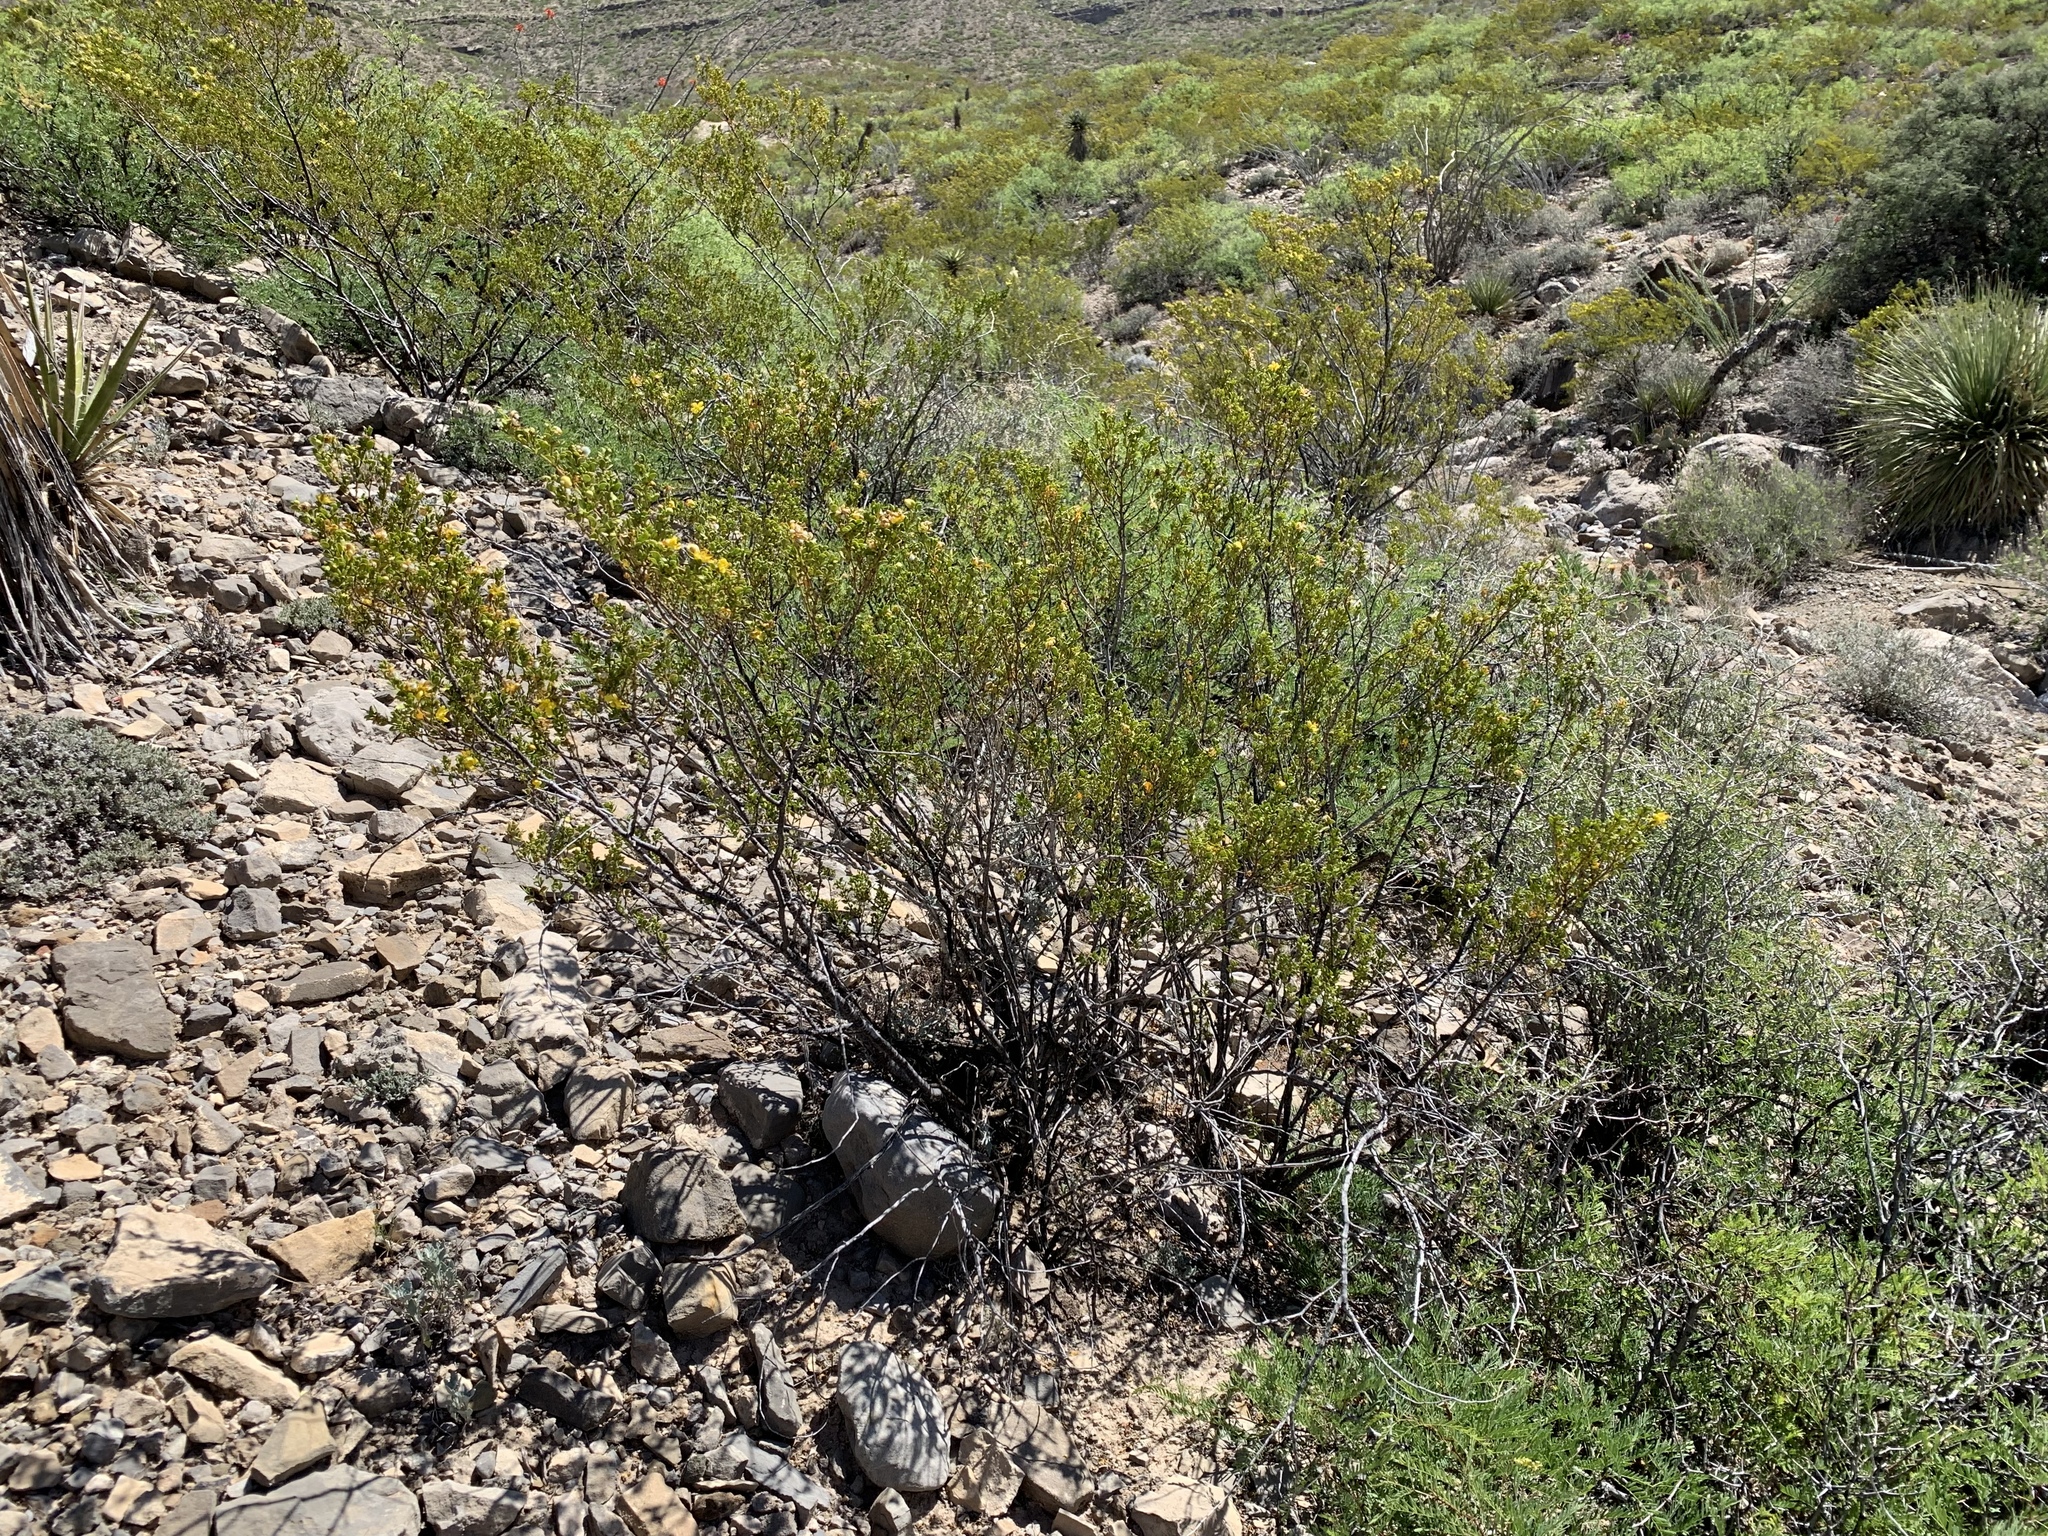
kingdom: Plantae
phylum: Tracheophyta
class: Magnoliopsida
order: Zygophyllales
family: Zygophyllaceae
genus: Larrea
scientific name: Larrea tridentata
